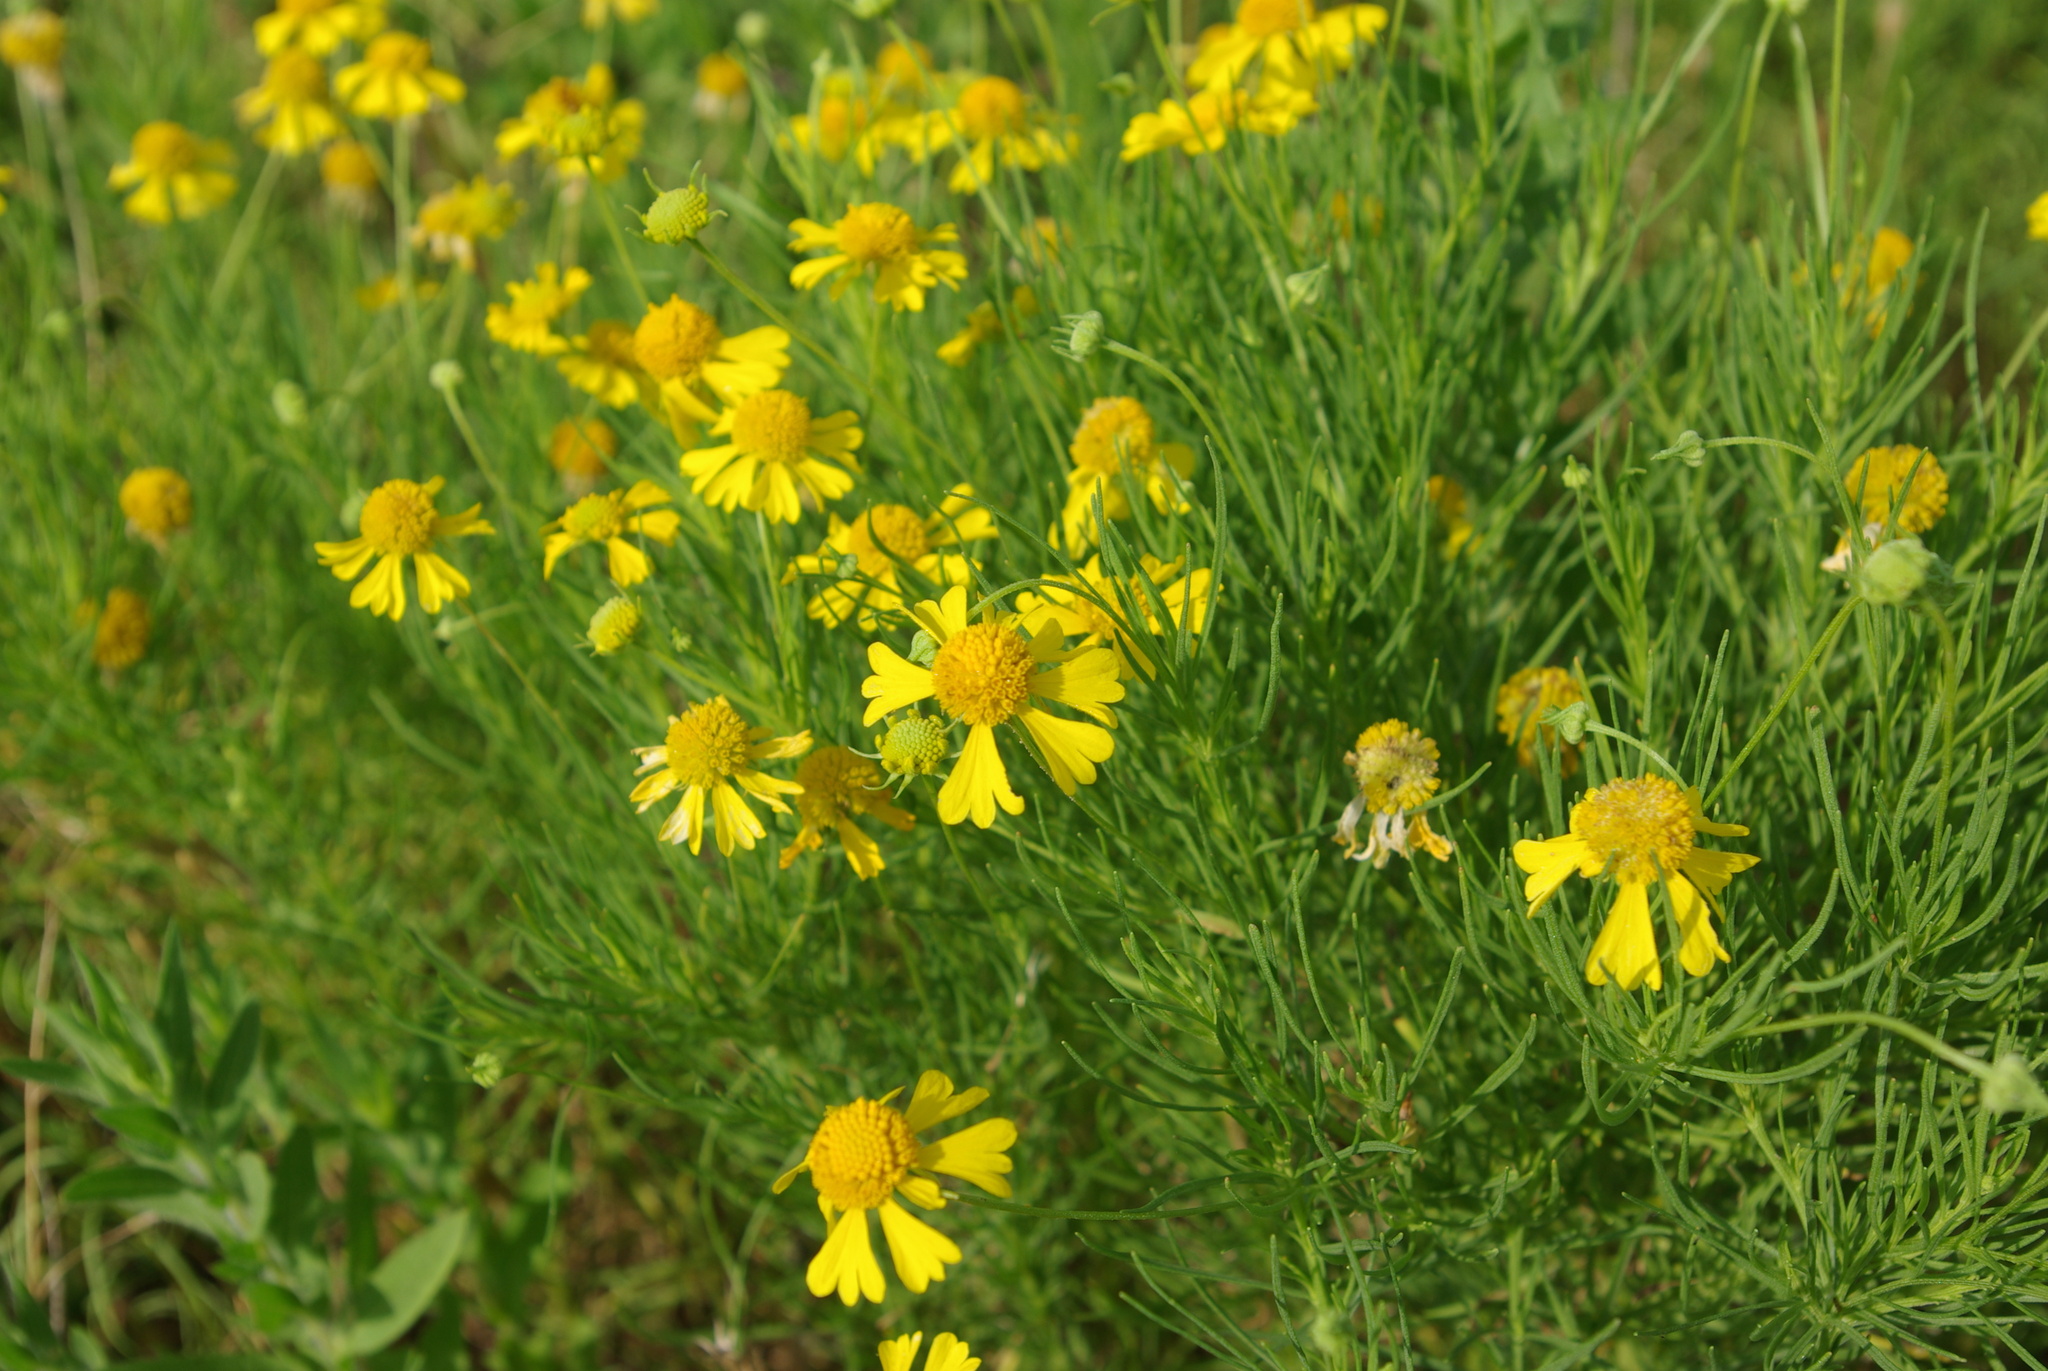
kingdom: Plantae
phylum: Tracheophyta
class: Magnoliopsida
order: Asterales
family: Asteraceae
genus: Helenium
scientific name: Helenium amarum
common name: Bitter sneezeweed
